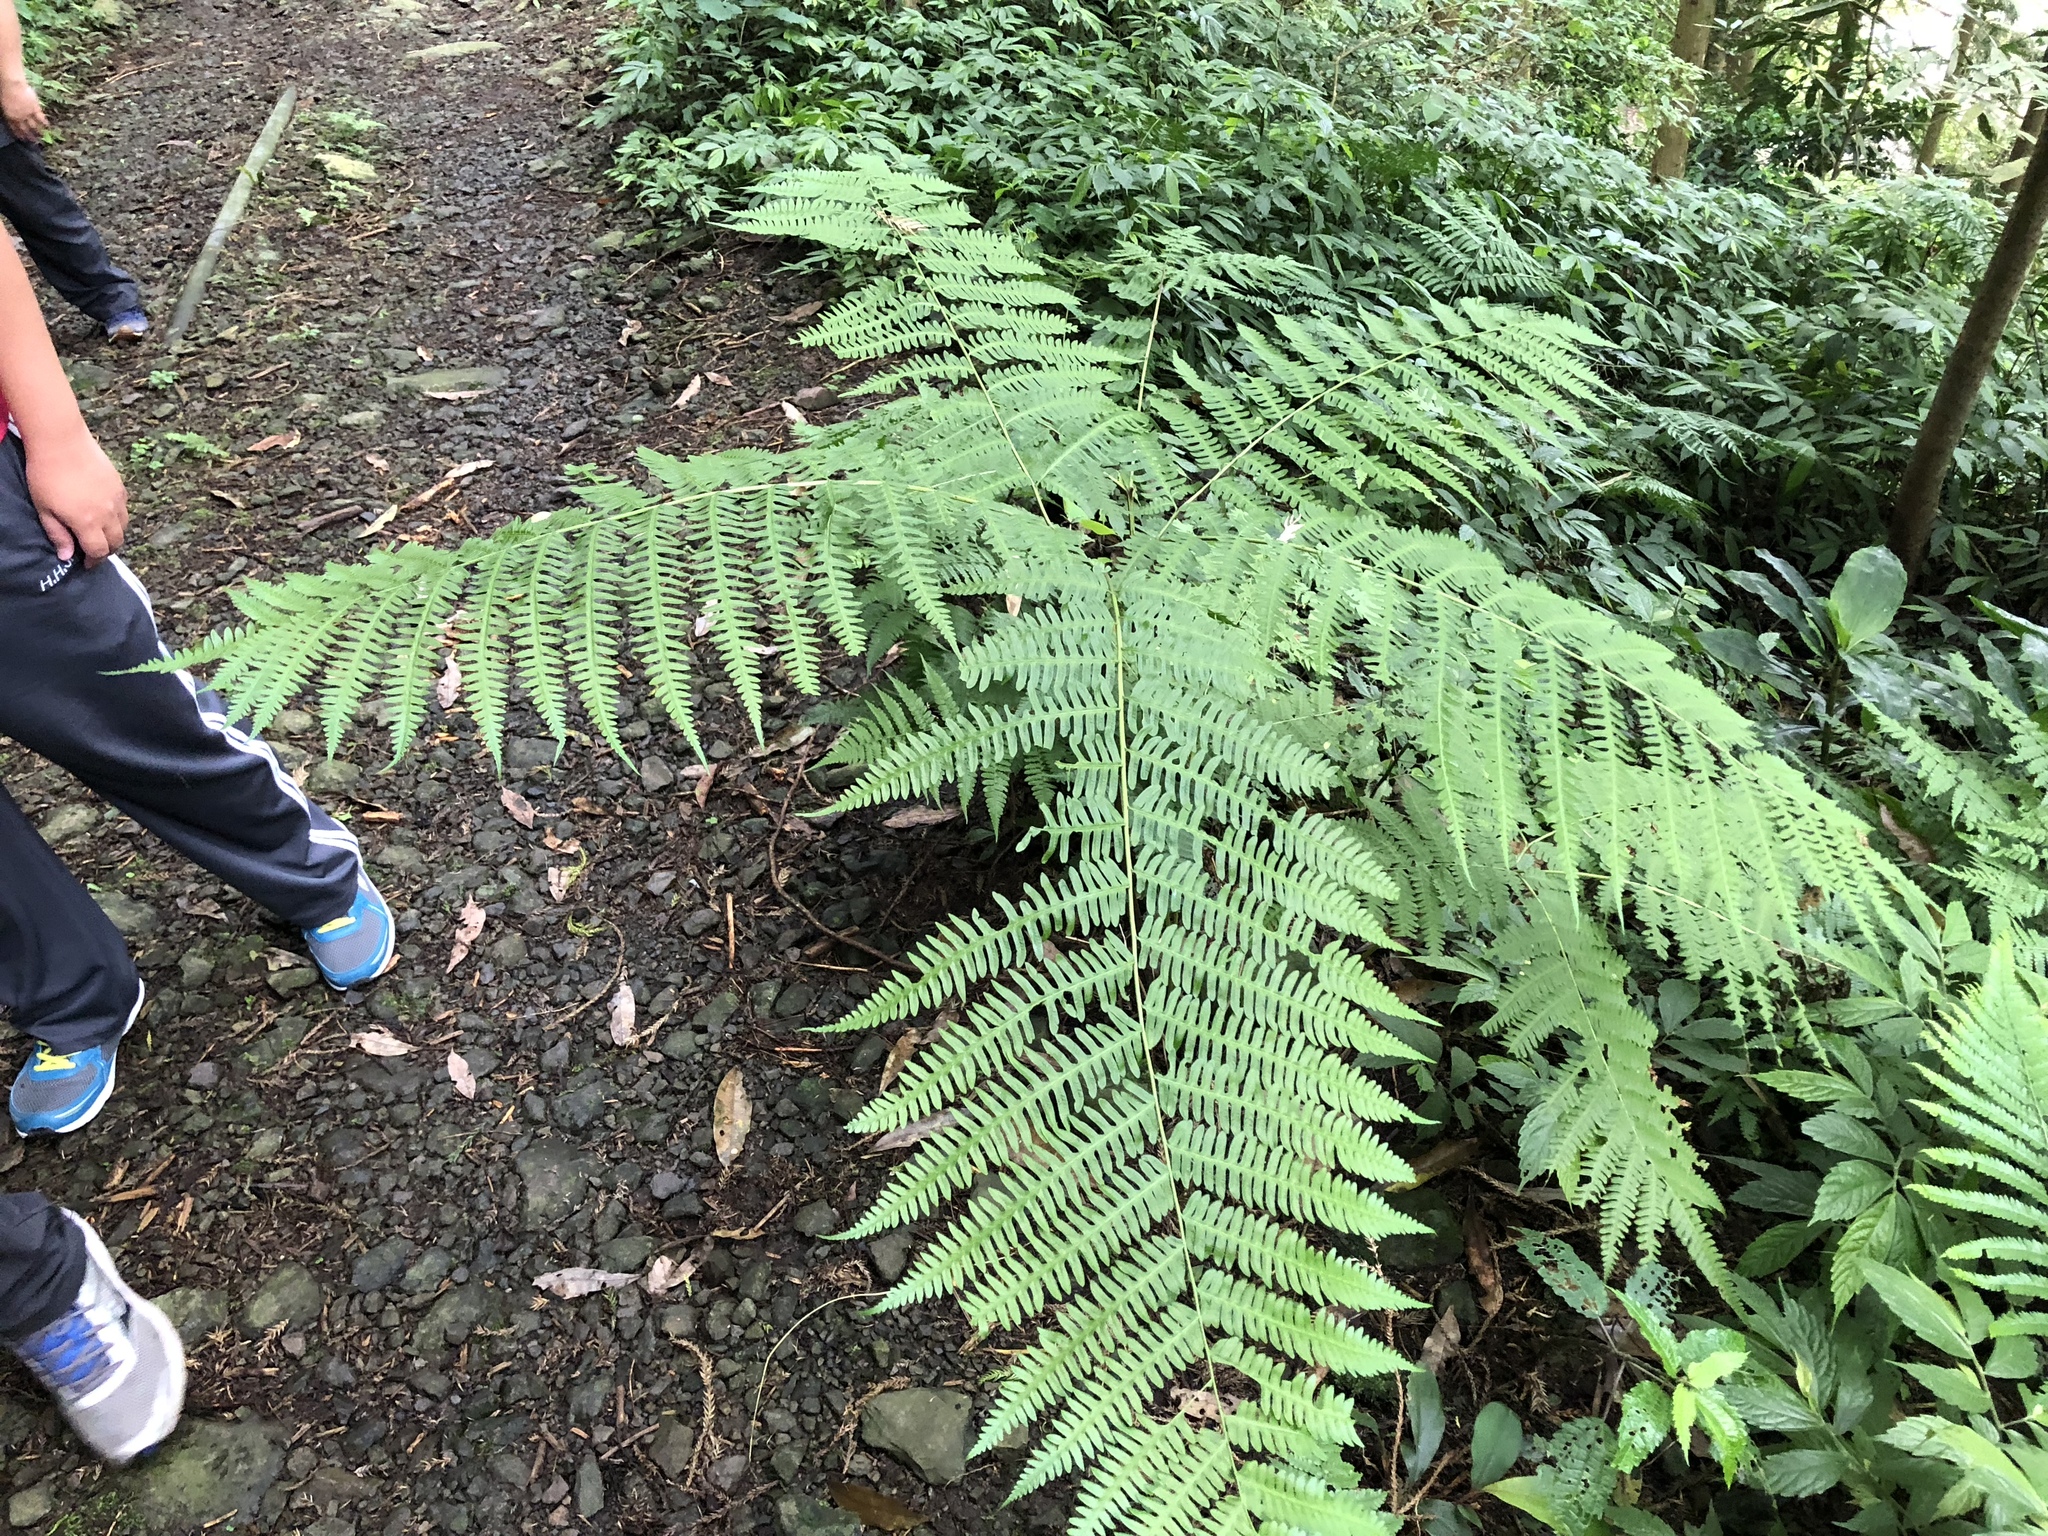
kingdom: Plantae
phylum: Tracheophyta
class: Polypodiopsida
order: Polypodiales
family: Pteridaceae
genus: Pteris
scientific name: Pteris wallichiana
